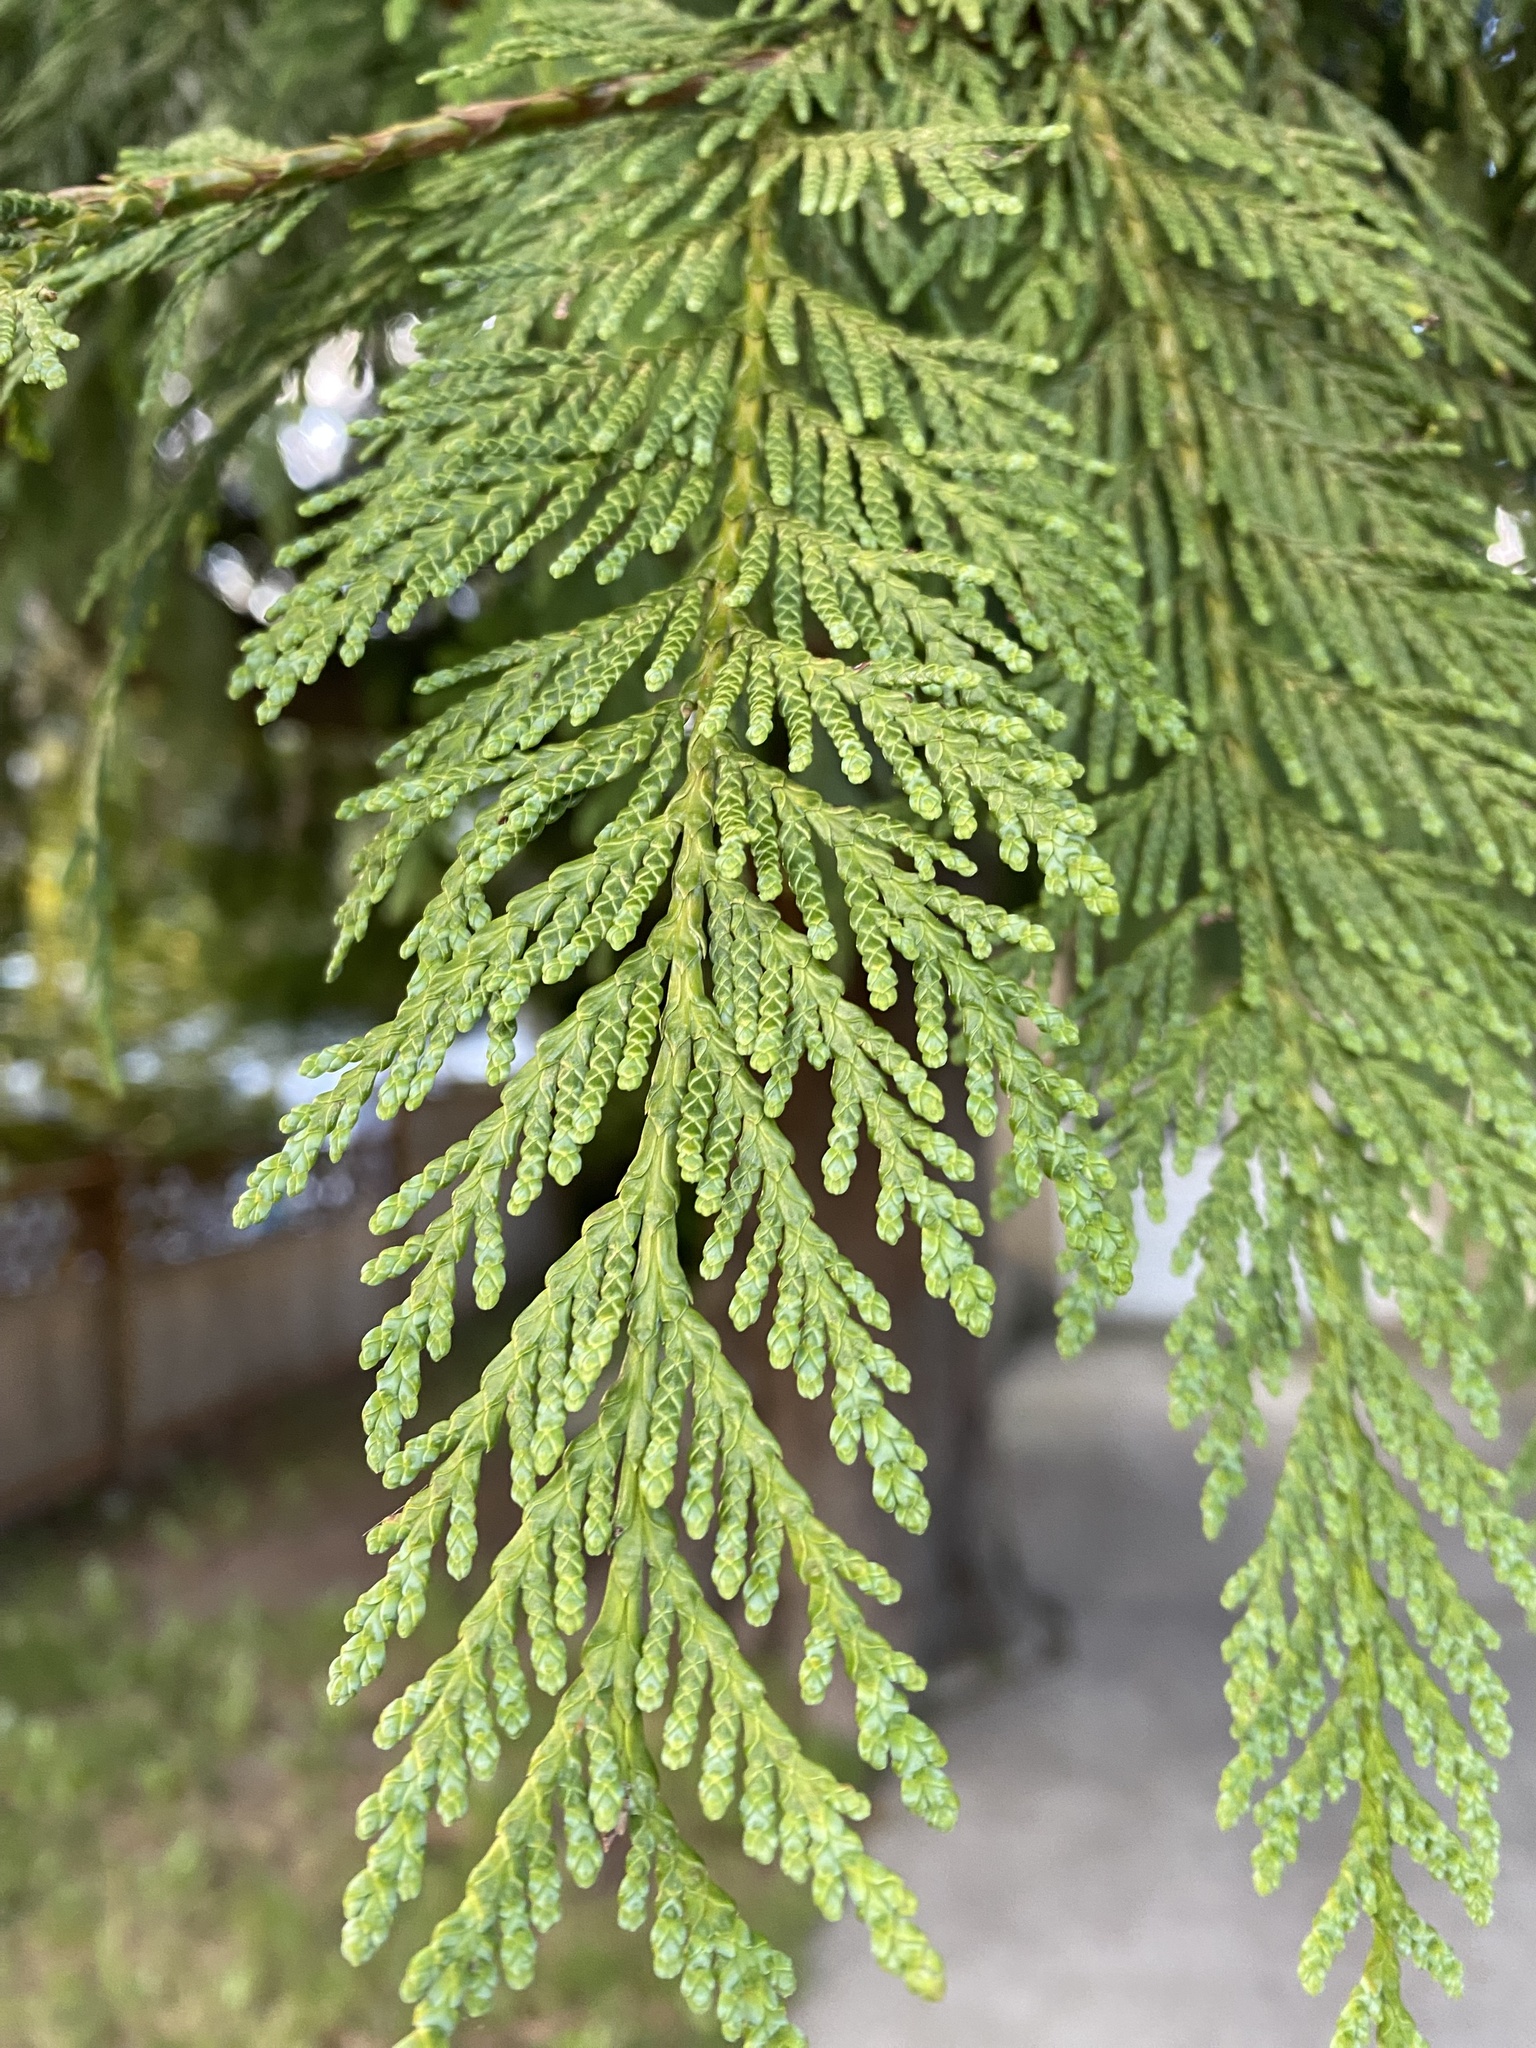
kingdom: Plantae
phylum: Tracheophyta
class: Pinopsida
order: Pinales
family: Cupressaceae
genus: Thuja
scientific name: Thuja plicata
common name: Western red-cedar
